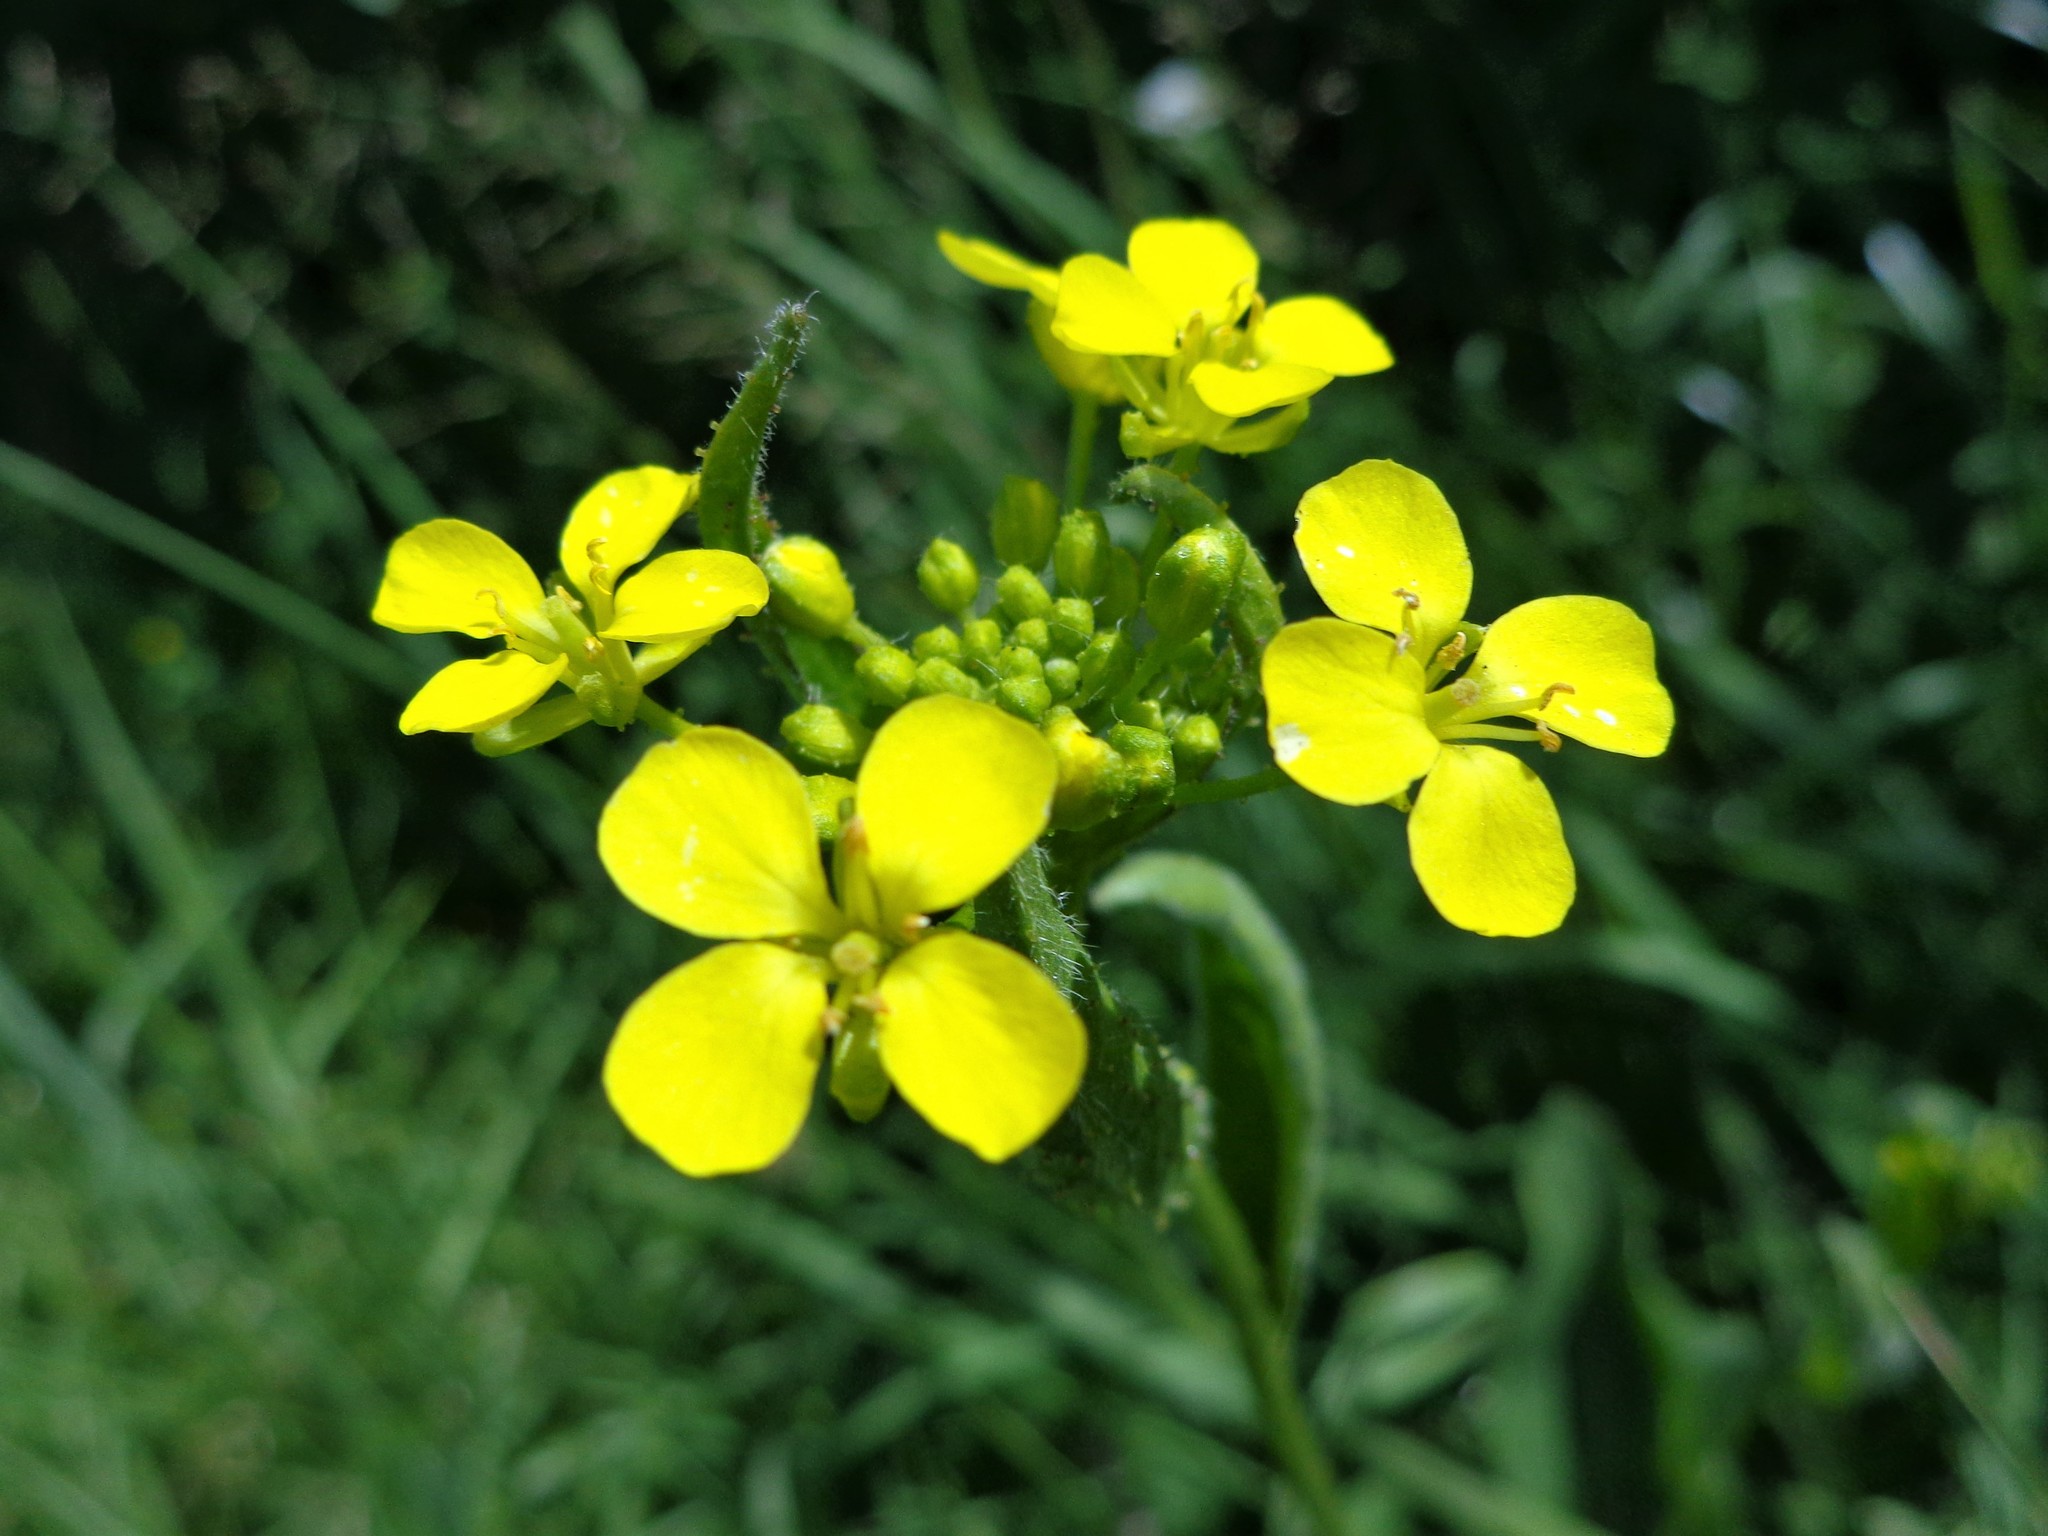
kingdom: Plantae
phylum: Tracheophyta
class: Magnoliopsida
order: Brassicales
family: Brassicaceae
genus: Bunias
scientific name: Bunias orientalis
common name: Warty-cabbage
